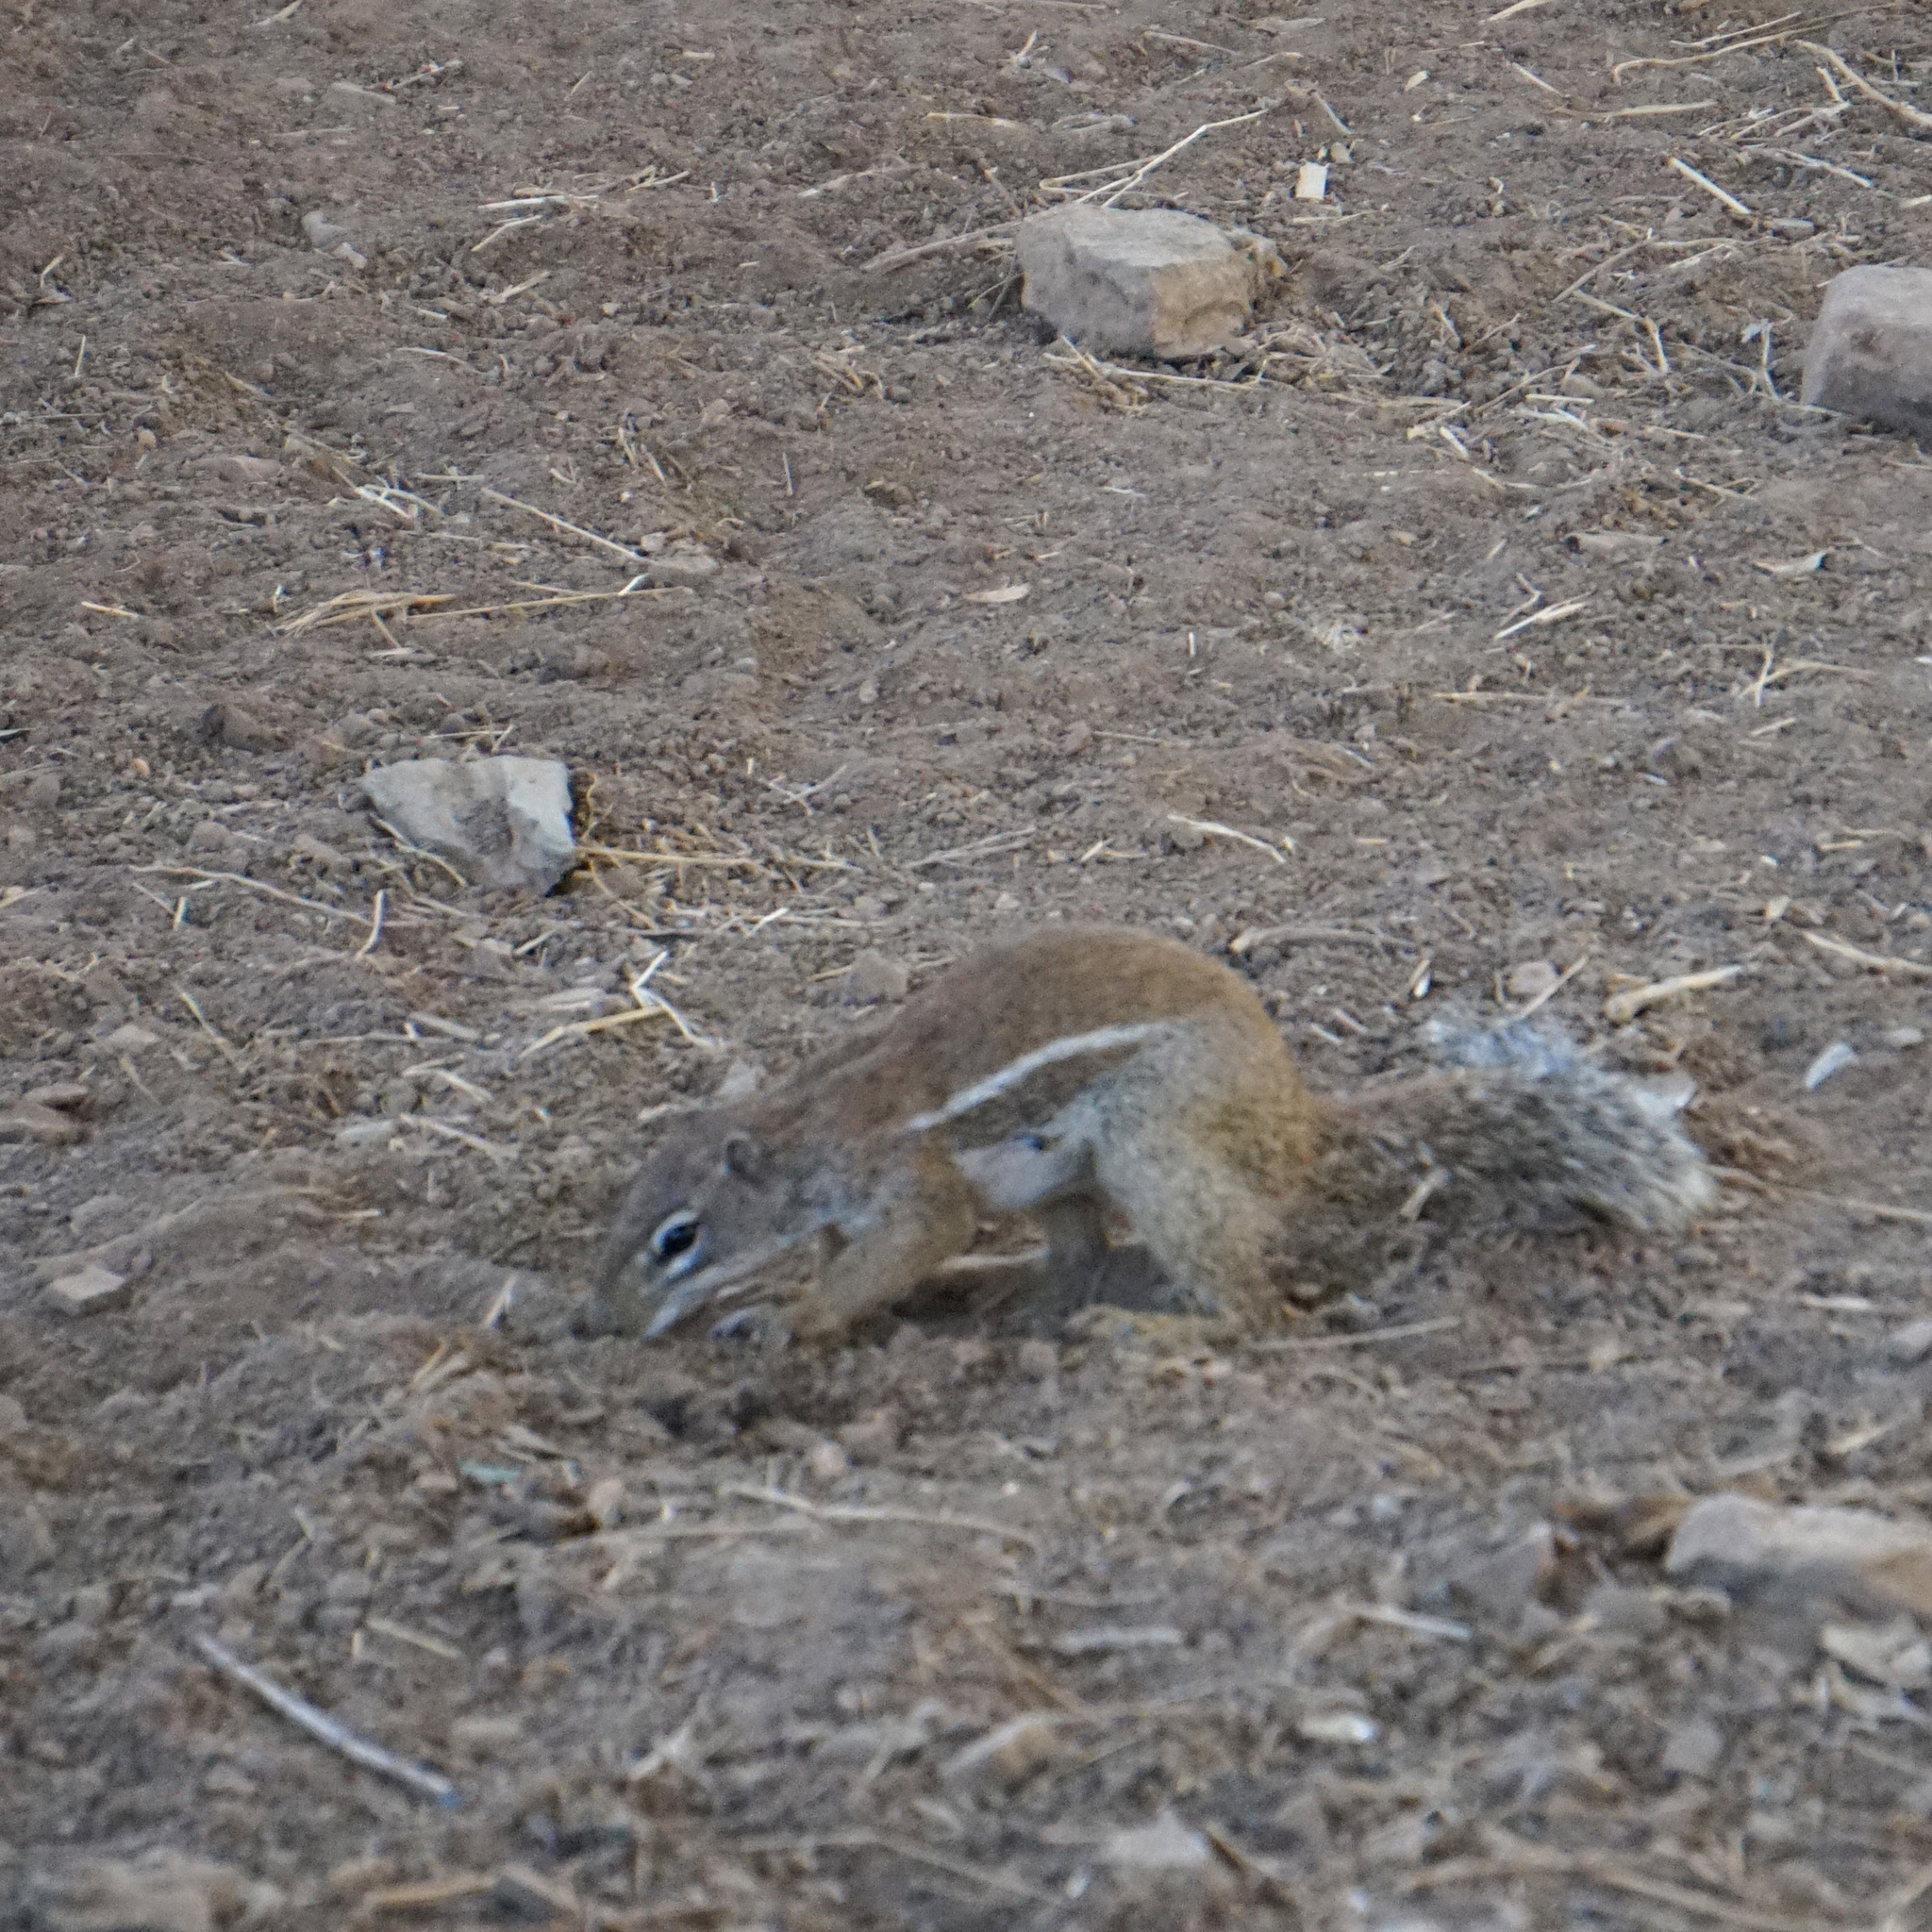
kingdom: Animalia
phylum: Chordata
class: Mammalia
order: Rodentia
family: Sciuridae
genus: Xerus
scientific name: Xerus erythropus
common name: Striped ground squirrel
